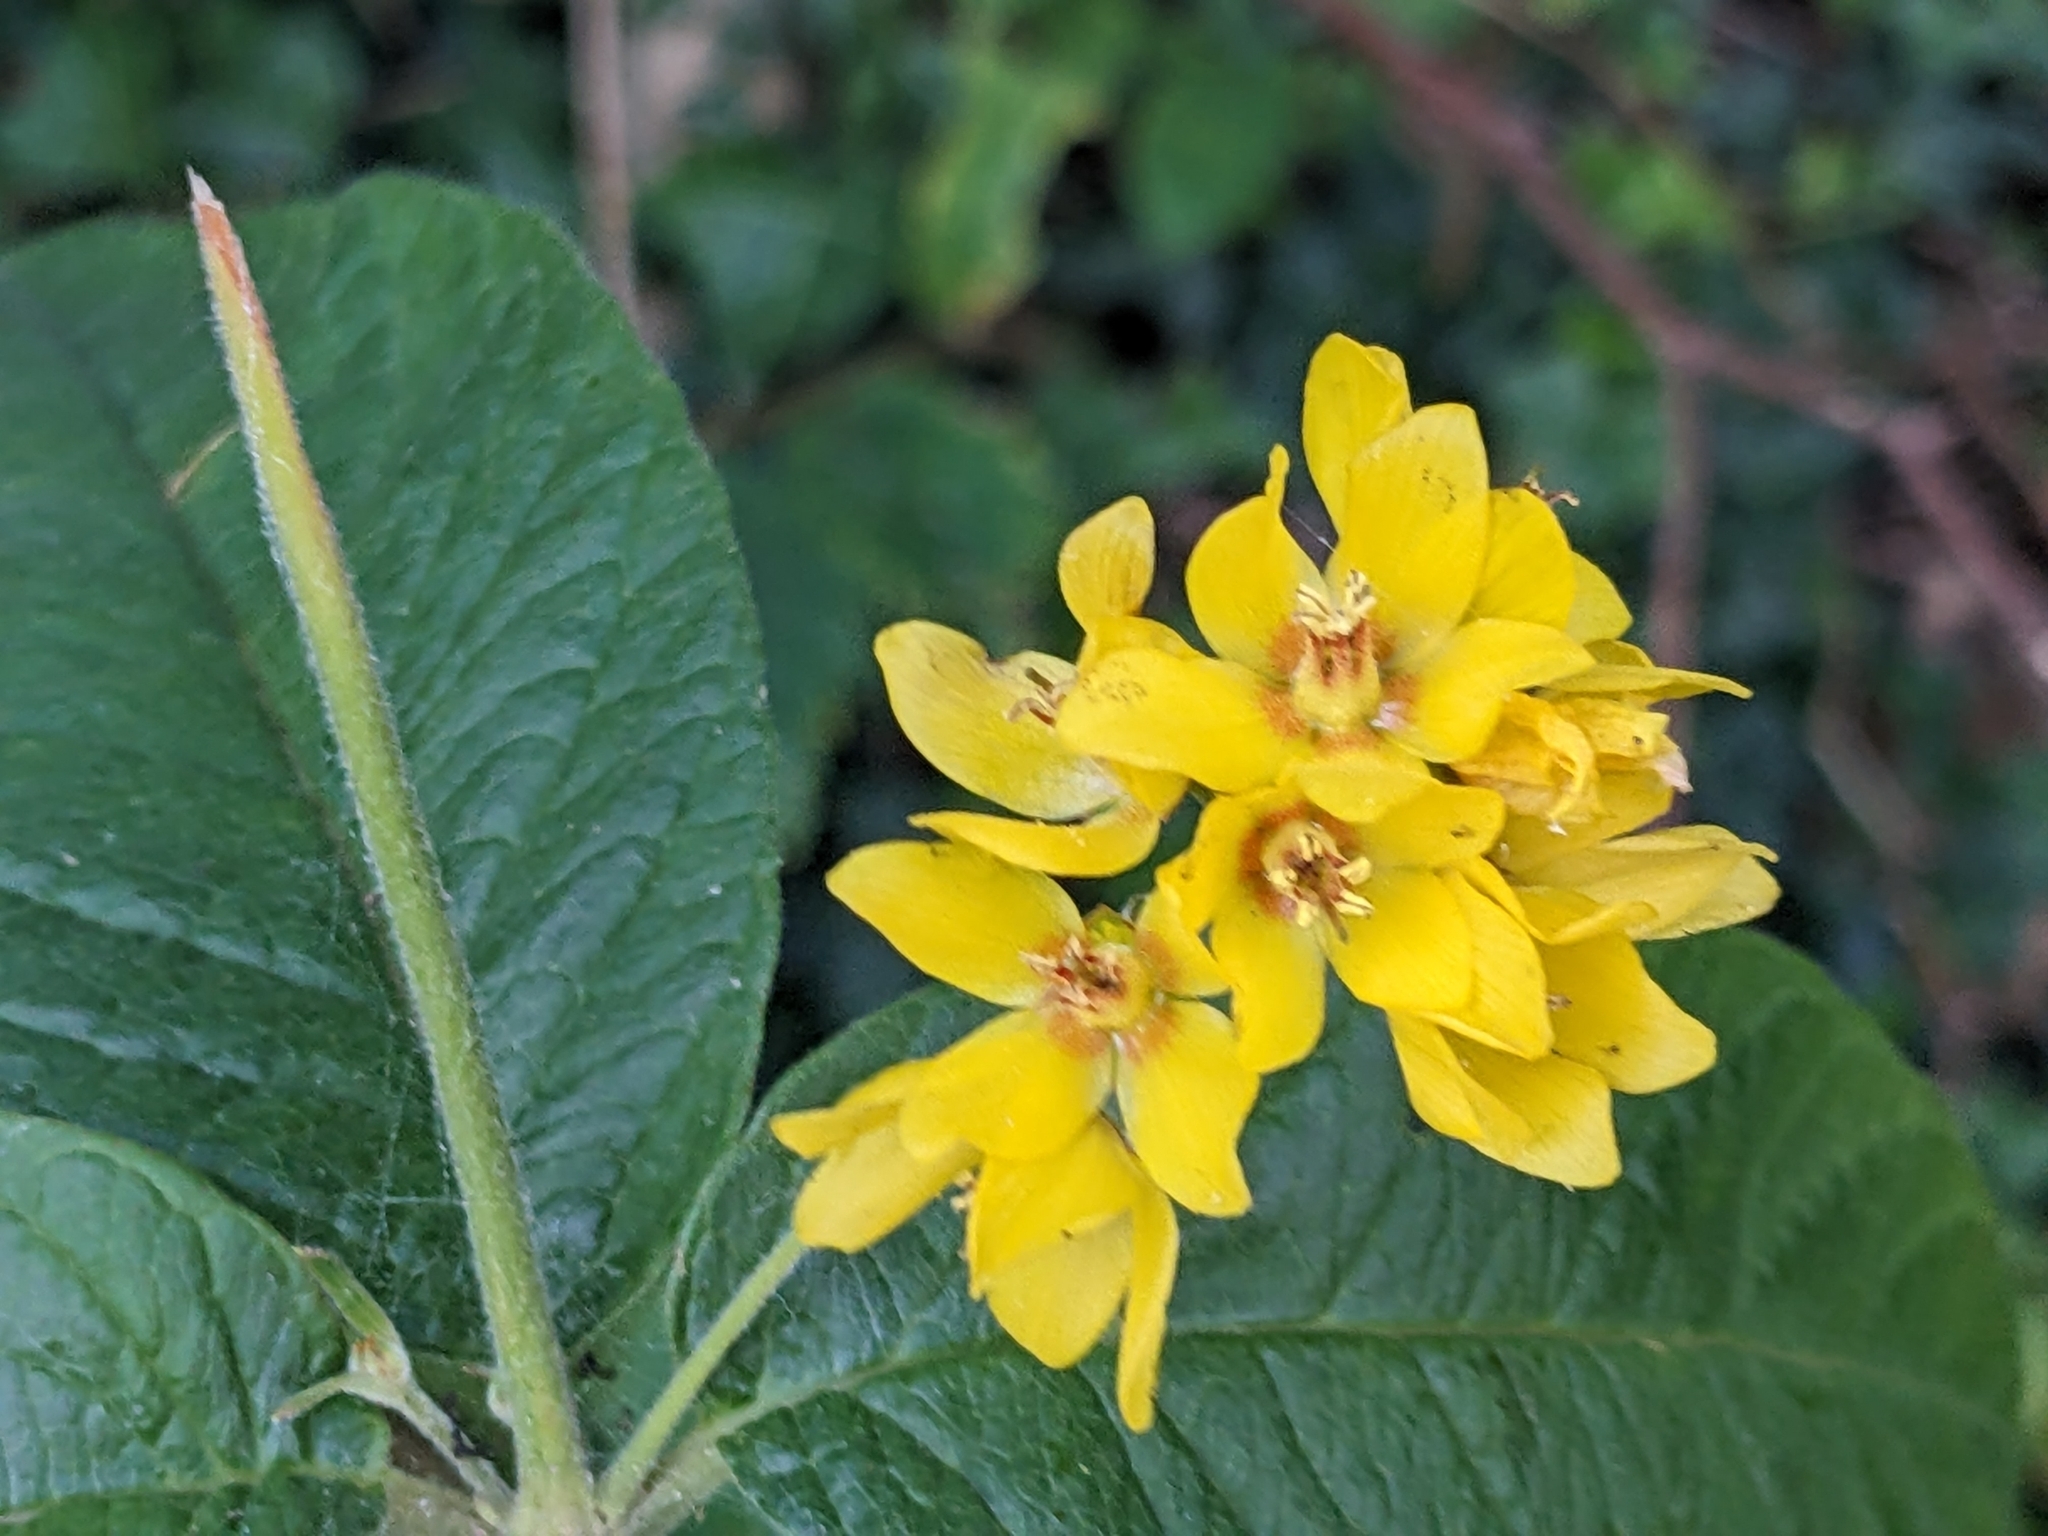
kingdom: Plantae
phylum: Tracheophyta
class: Magnoliopsida
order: Ericales
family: Primulaceae
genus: Lysimachia
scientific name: Lysimachia vulgaris
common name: Yellow loosestrife
